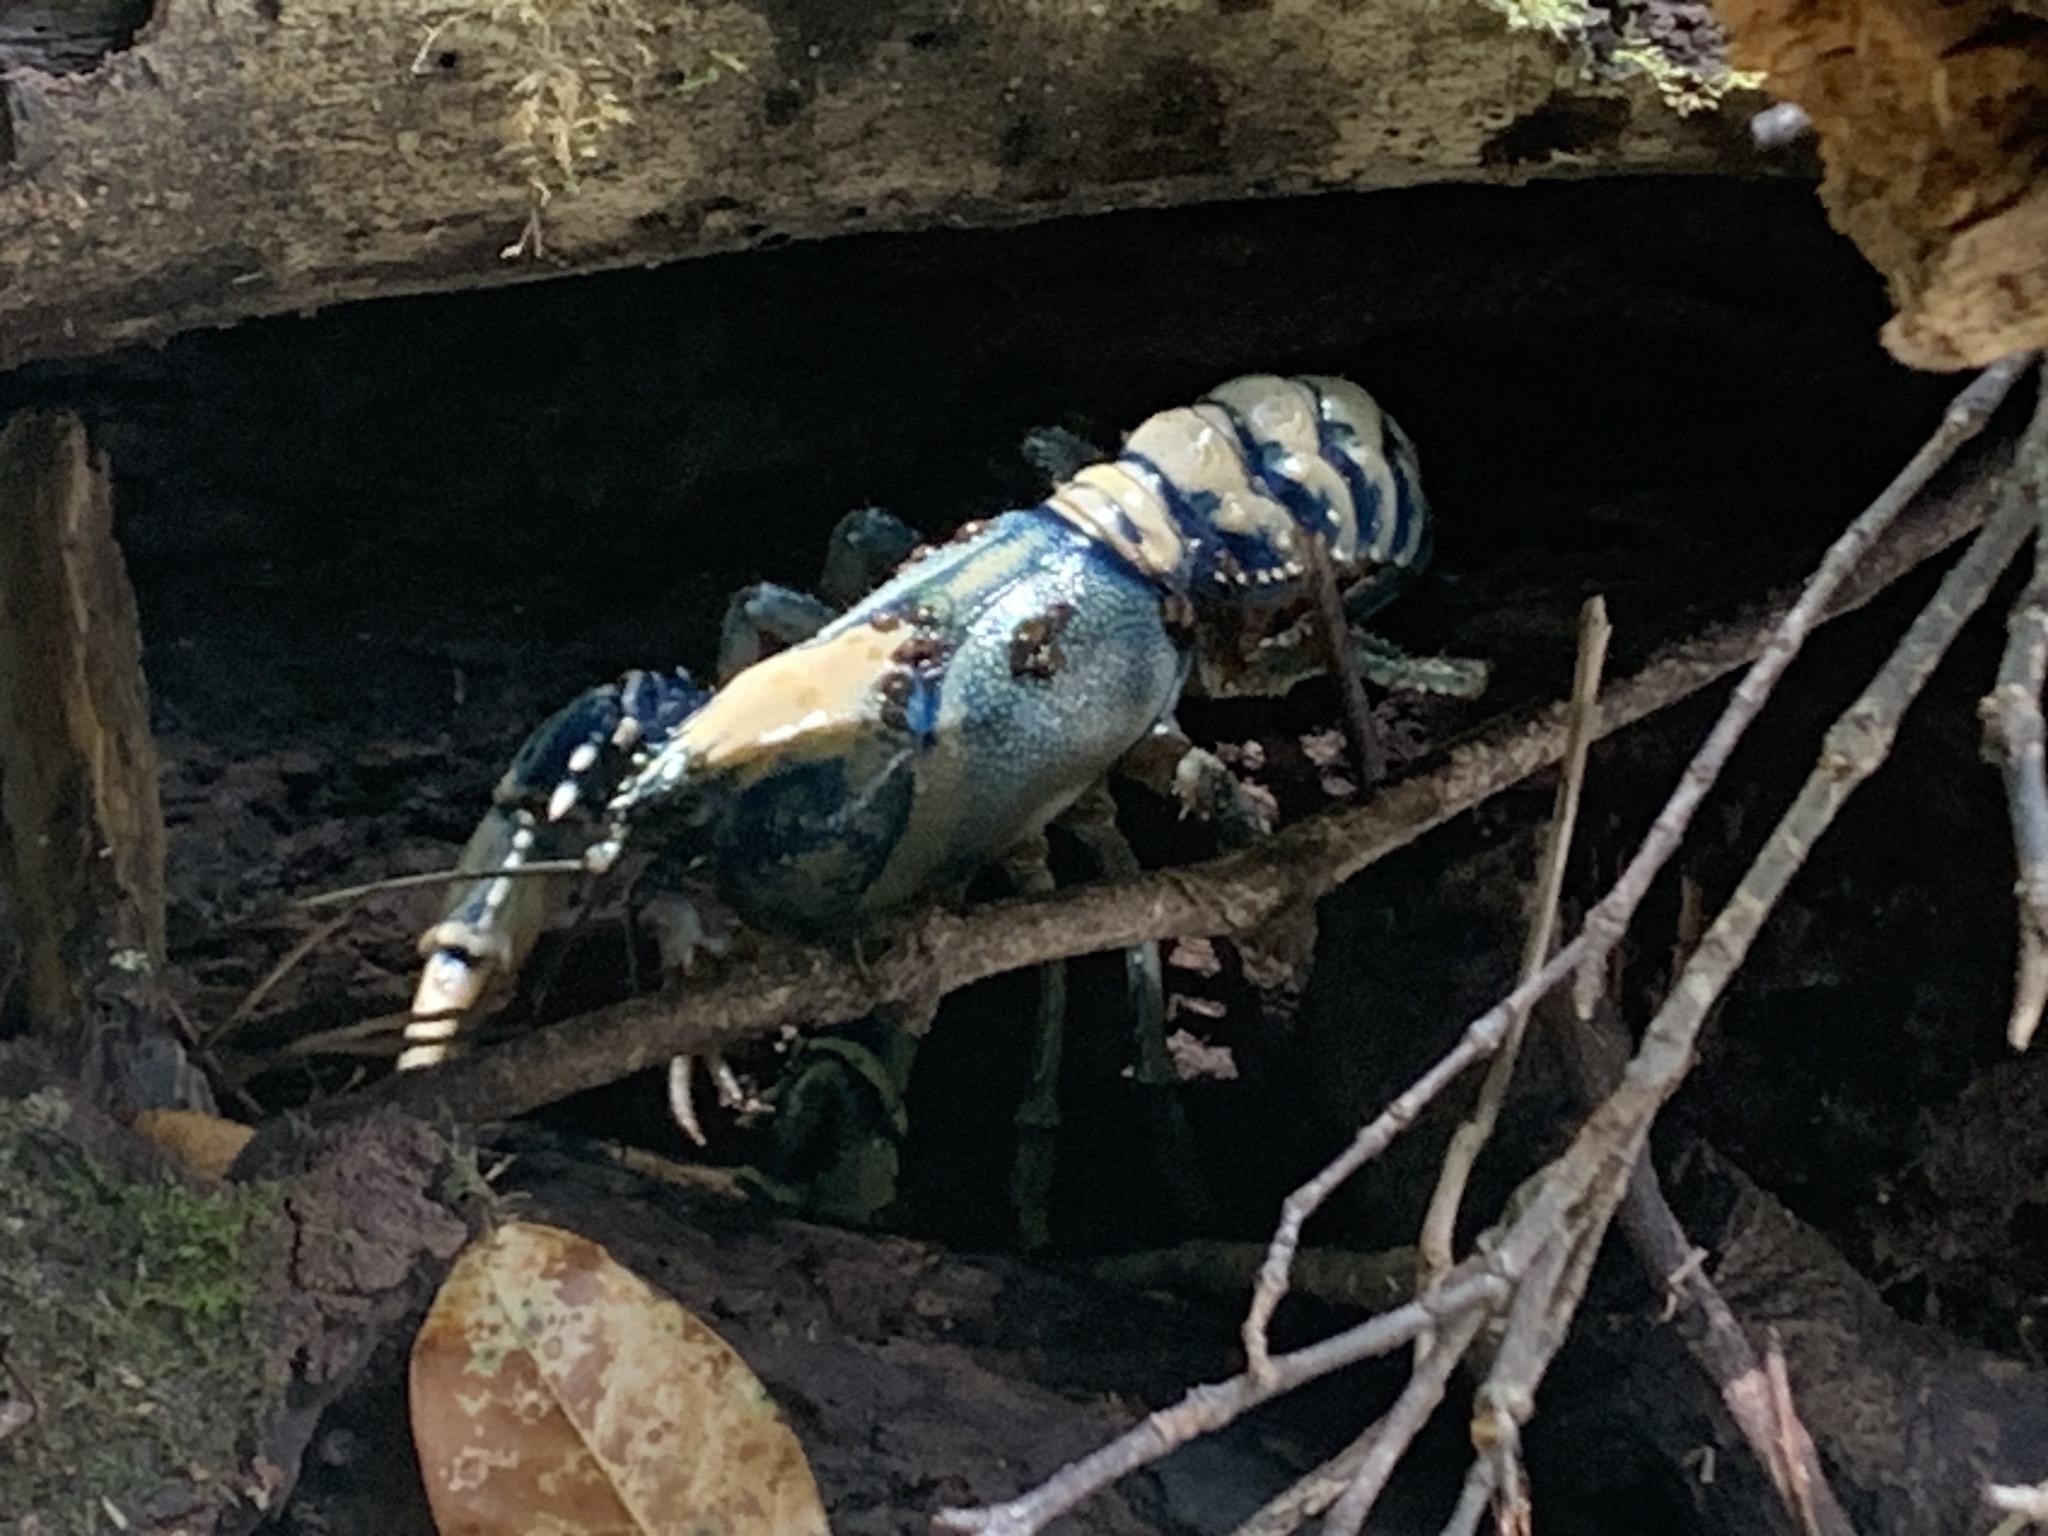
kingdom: Animalia
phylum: Arthropoda
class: Malacostraca
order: Decapoda
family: Parastacidae
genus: Euastacus
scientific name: Euastacus sulcatus
